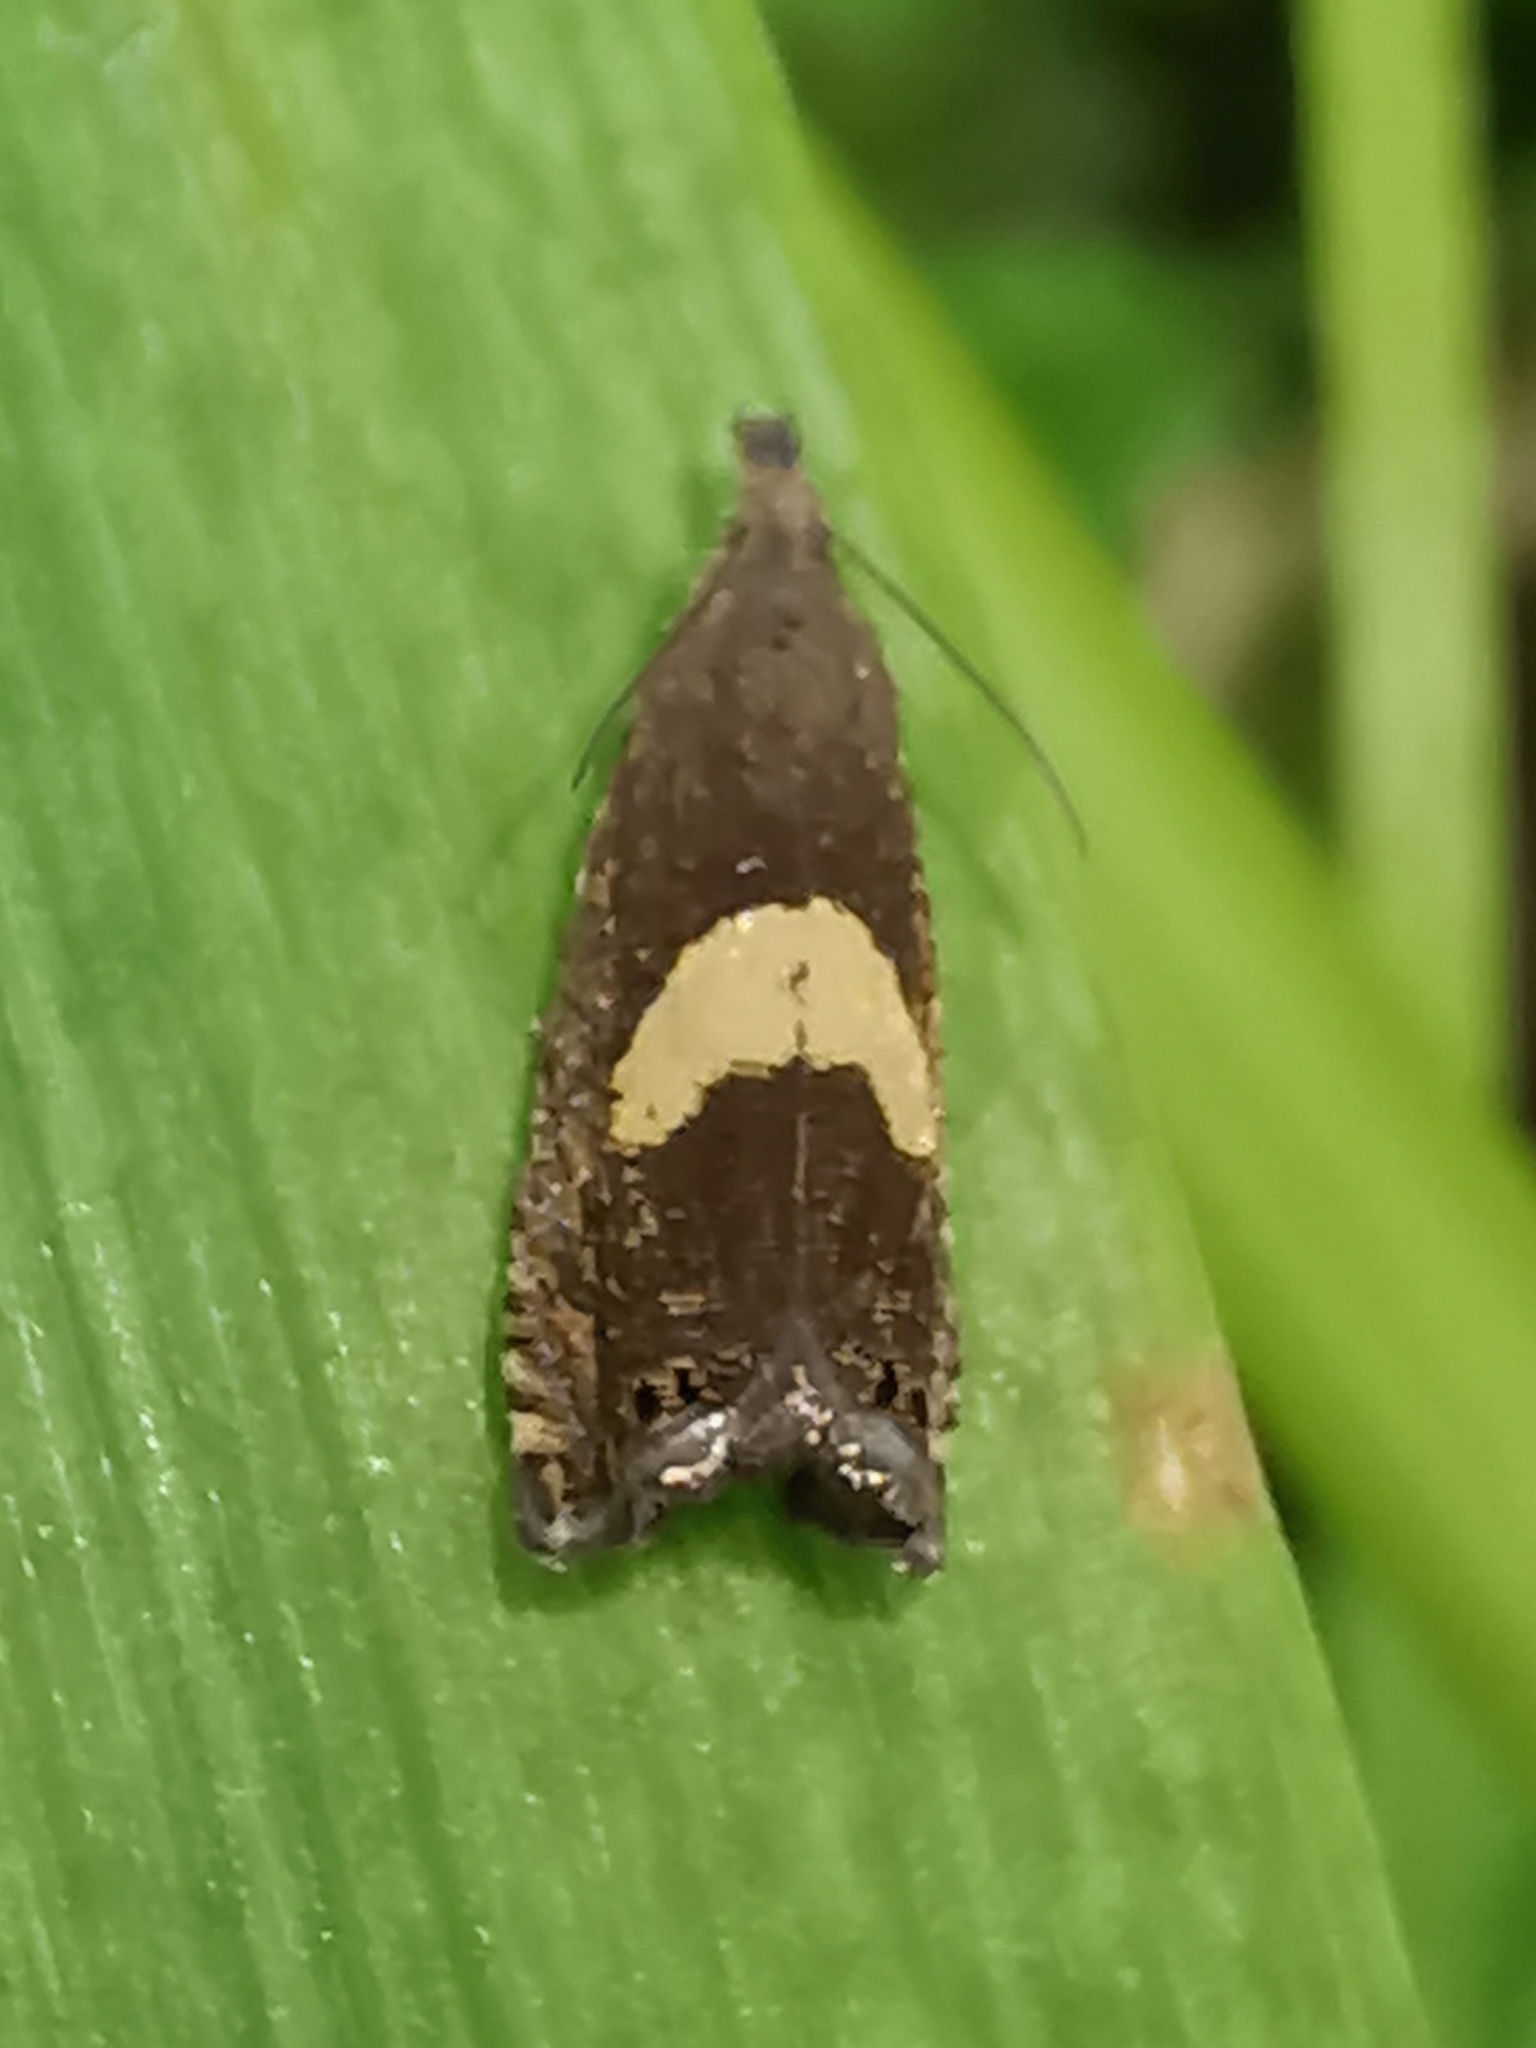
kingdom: Animalia
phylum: Arthropoda
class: Insecta
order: Lepidoptera
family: Tortricidae
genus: Dichrorampha
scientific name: Dichrorampha alpinana
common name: Broad-blotch drill
